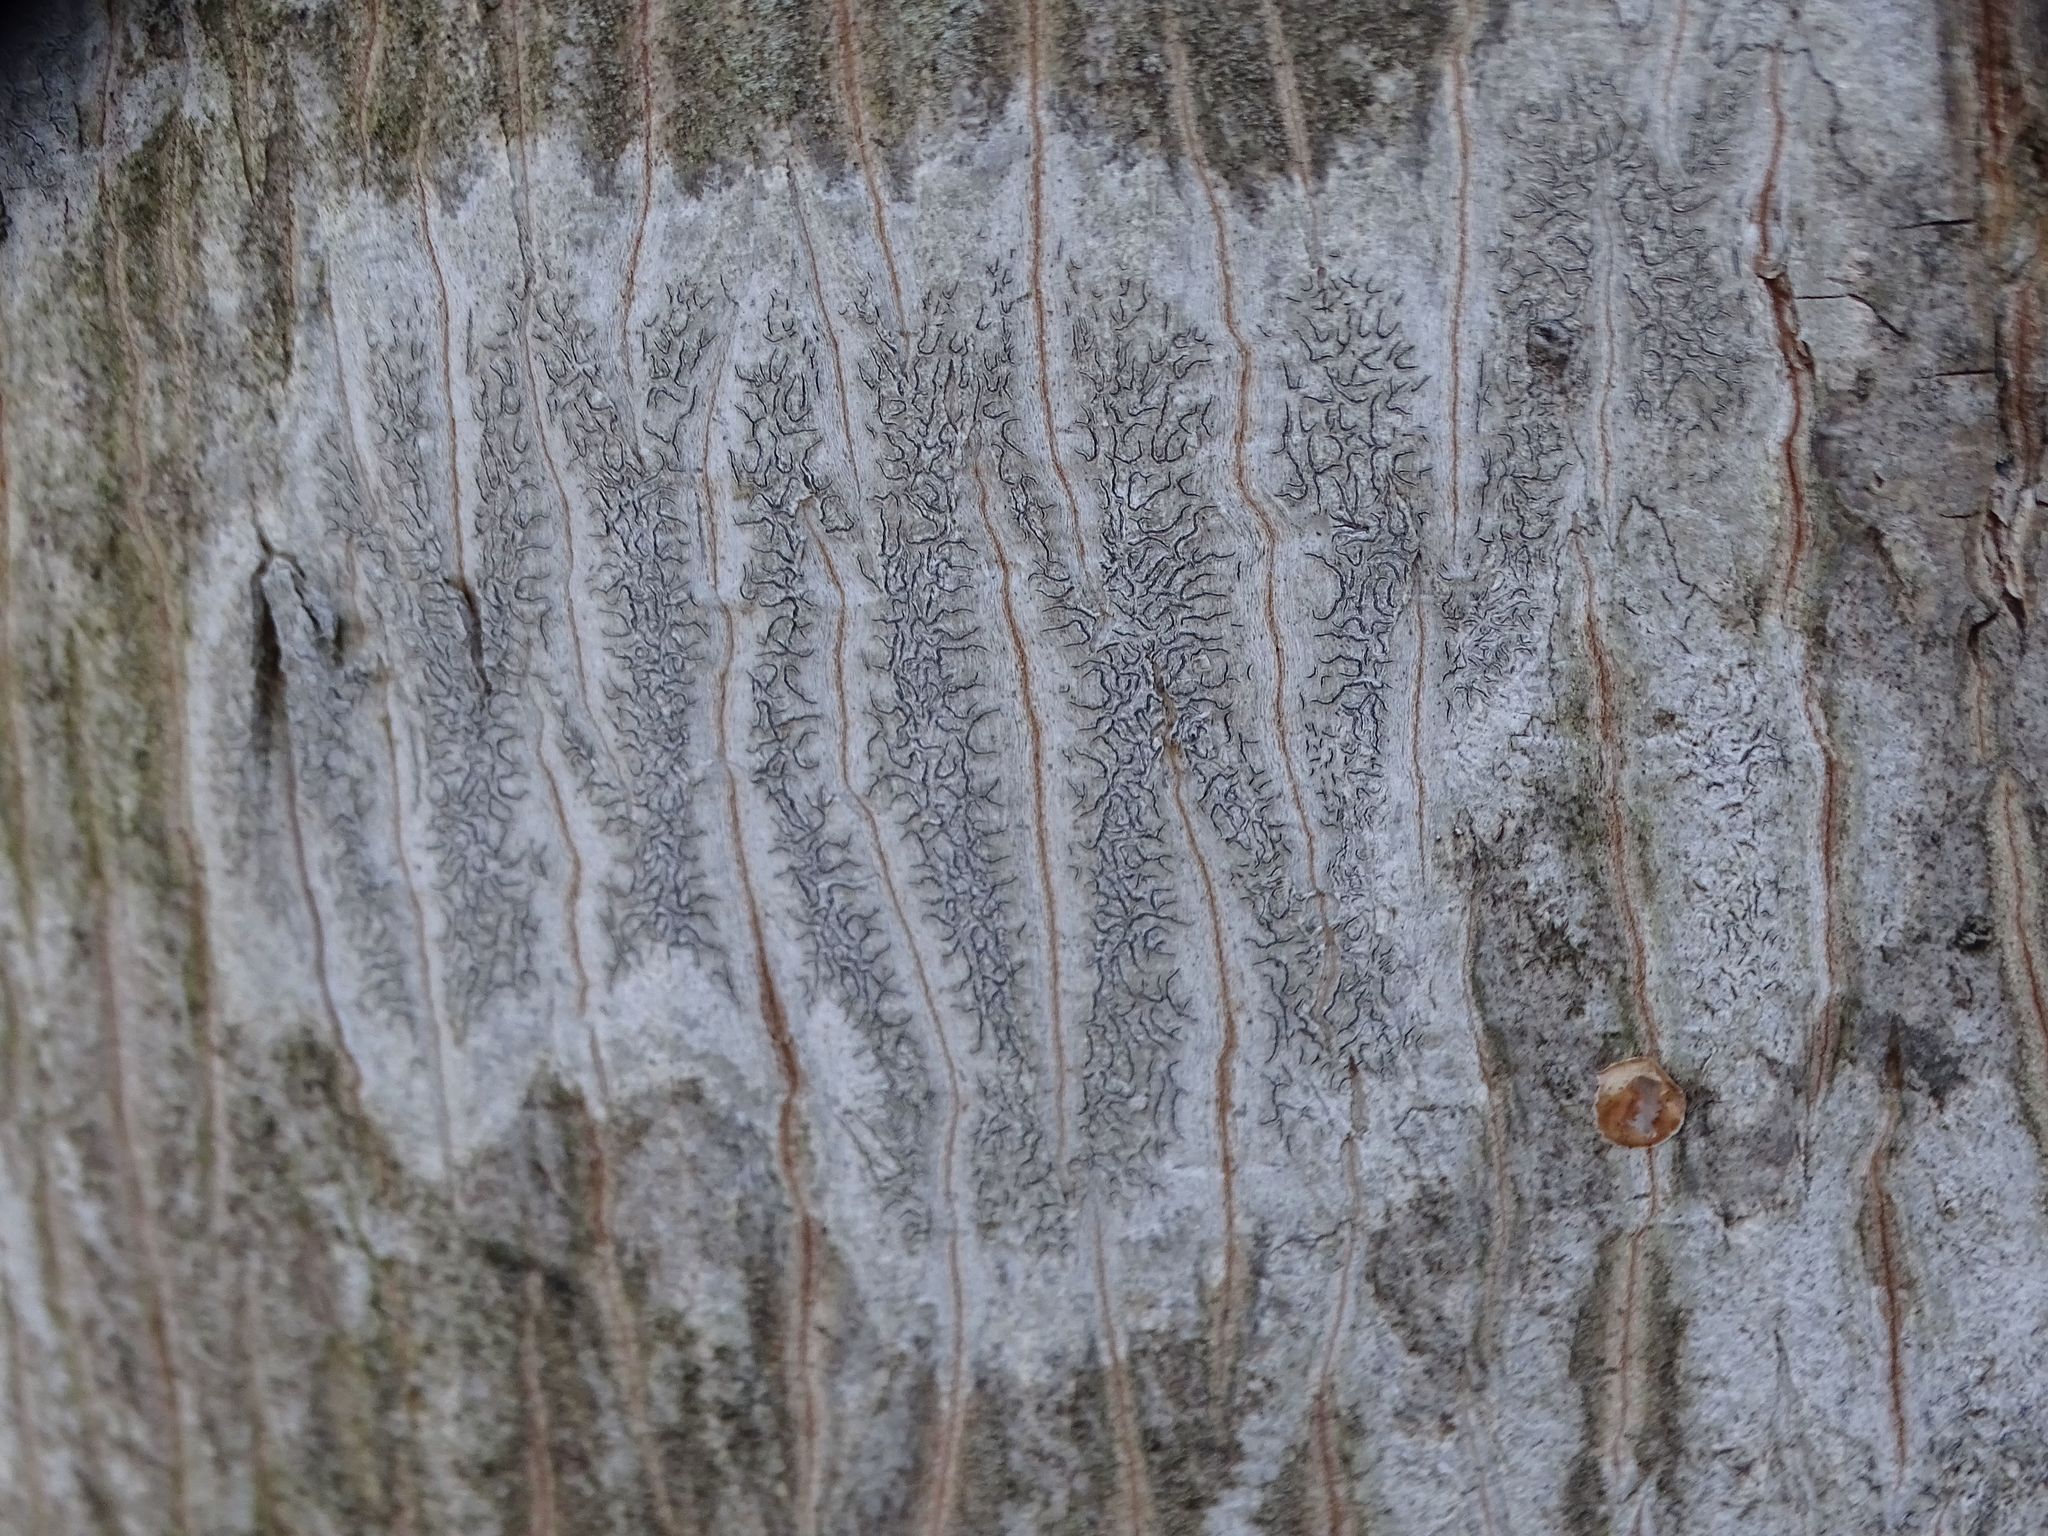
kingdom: Fungi
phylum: Ascomycota
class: Lecanoromycetes
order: Ostropales
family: Graphidaceae
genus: Graphis
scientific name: Graphis scripta
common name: Script lichen
